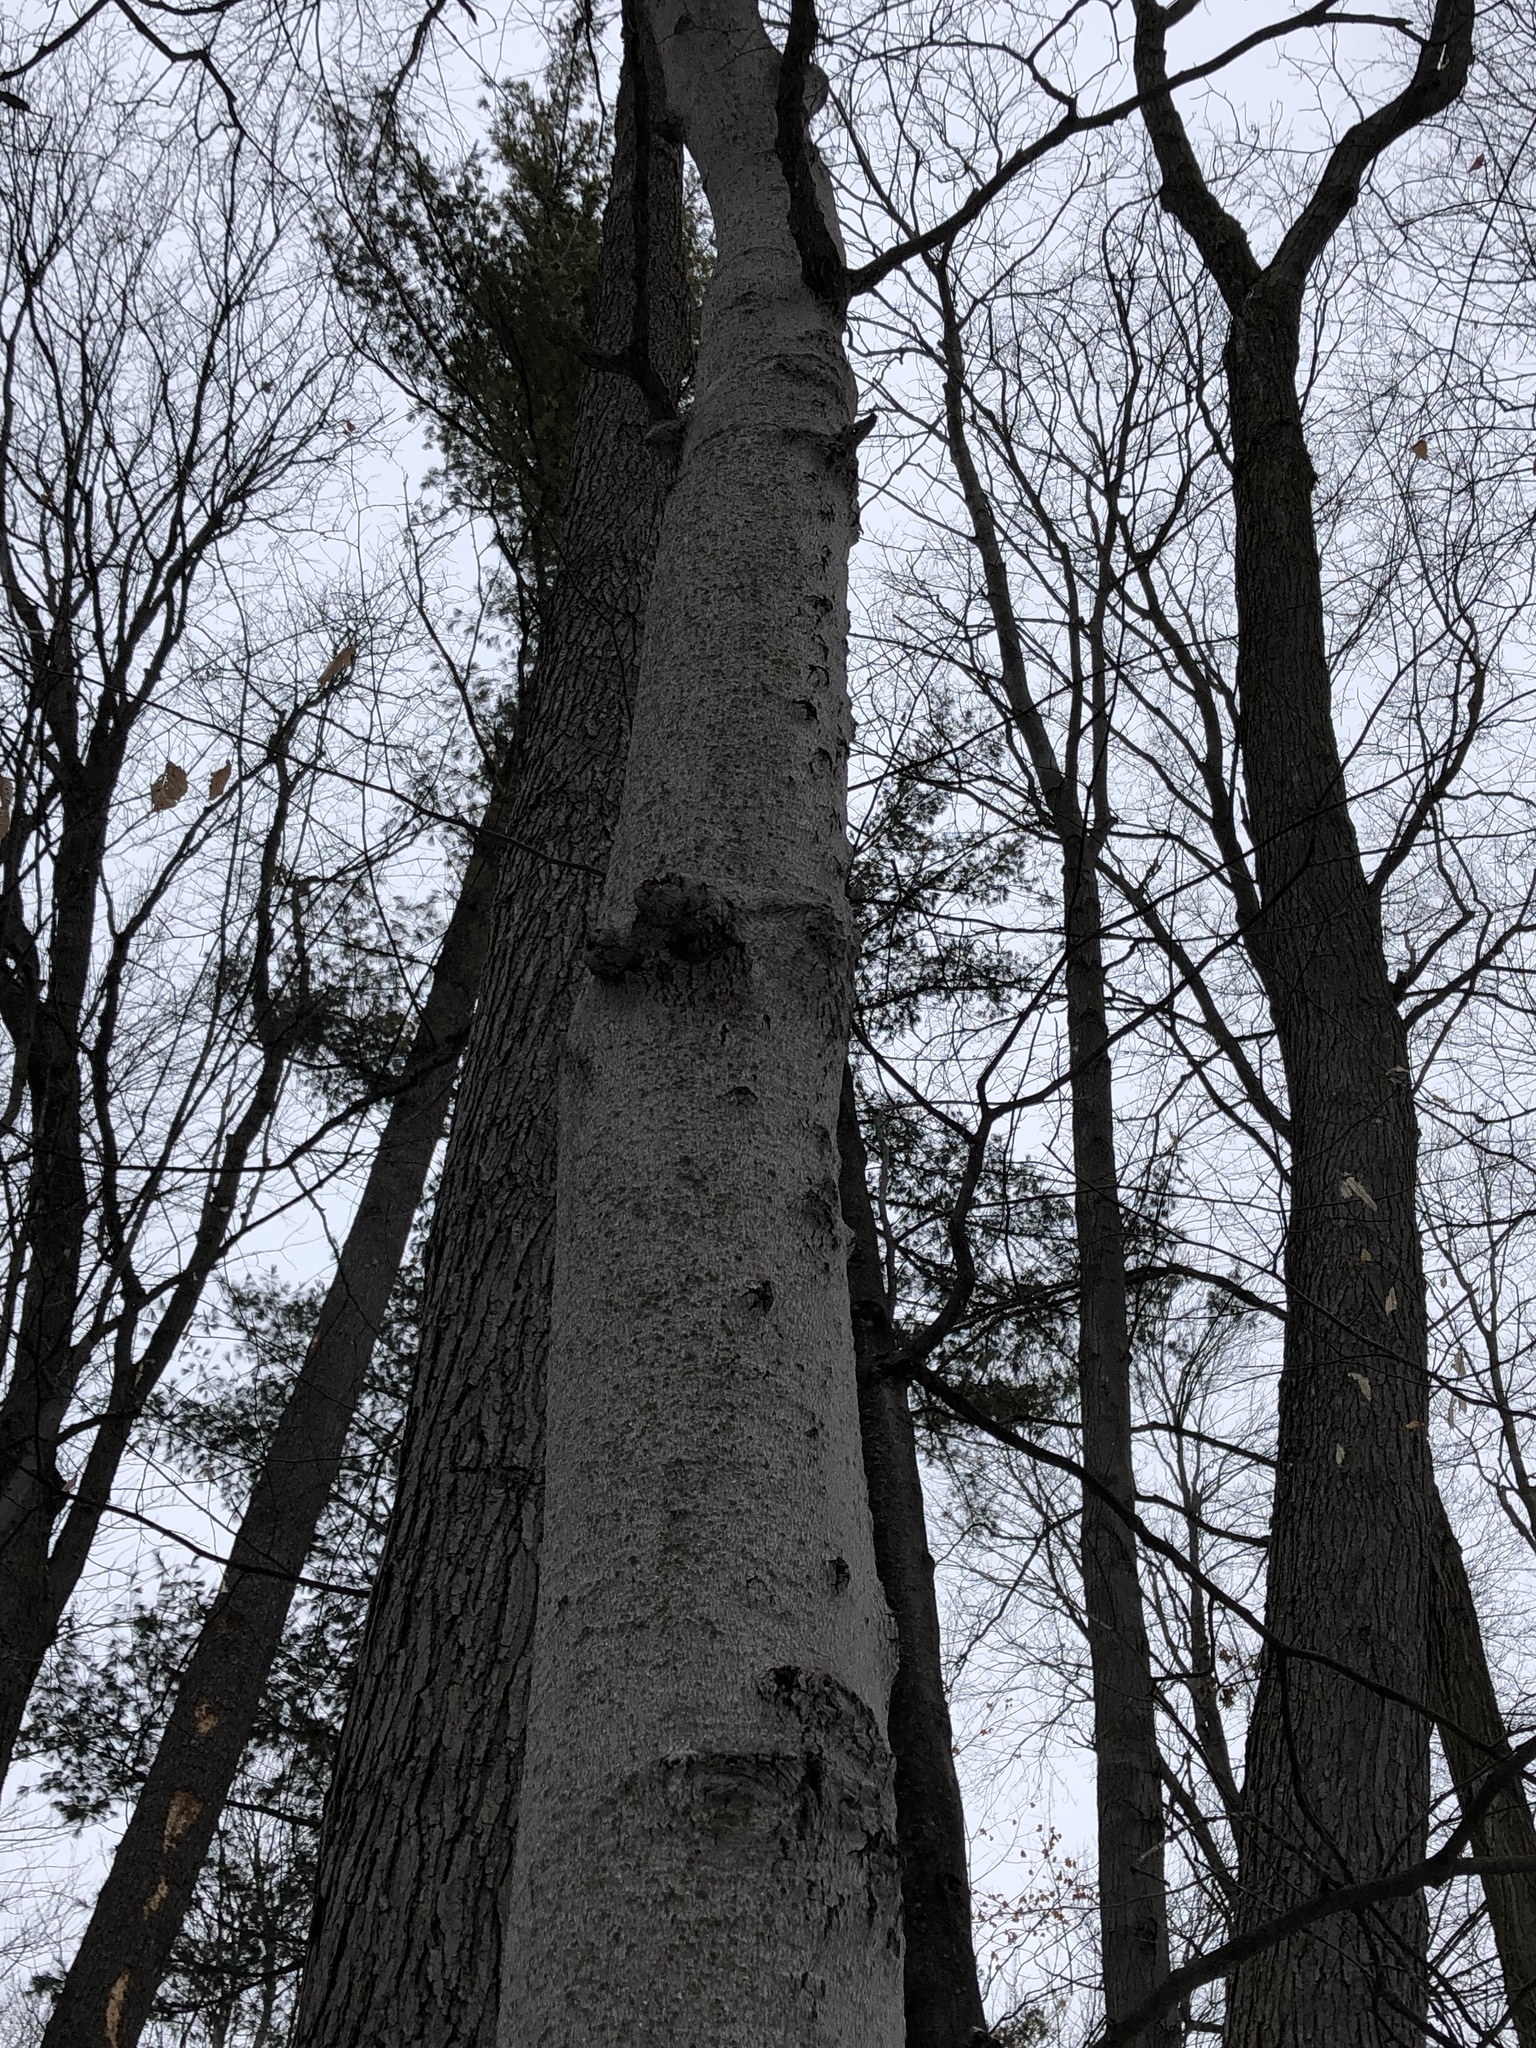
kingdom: Plantae
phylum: Tracheophyta
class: Magnoliopsida
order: Fagales
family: Fagaceae
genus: Fagus
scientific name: Fagus grandifolia
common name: American beech
